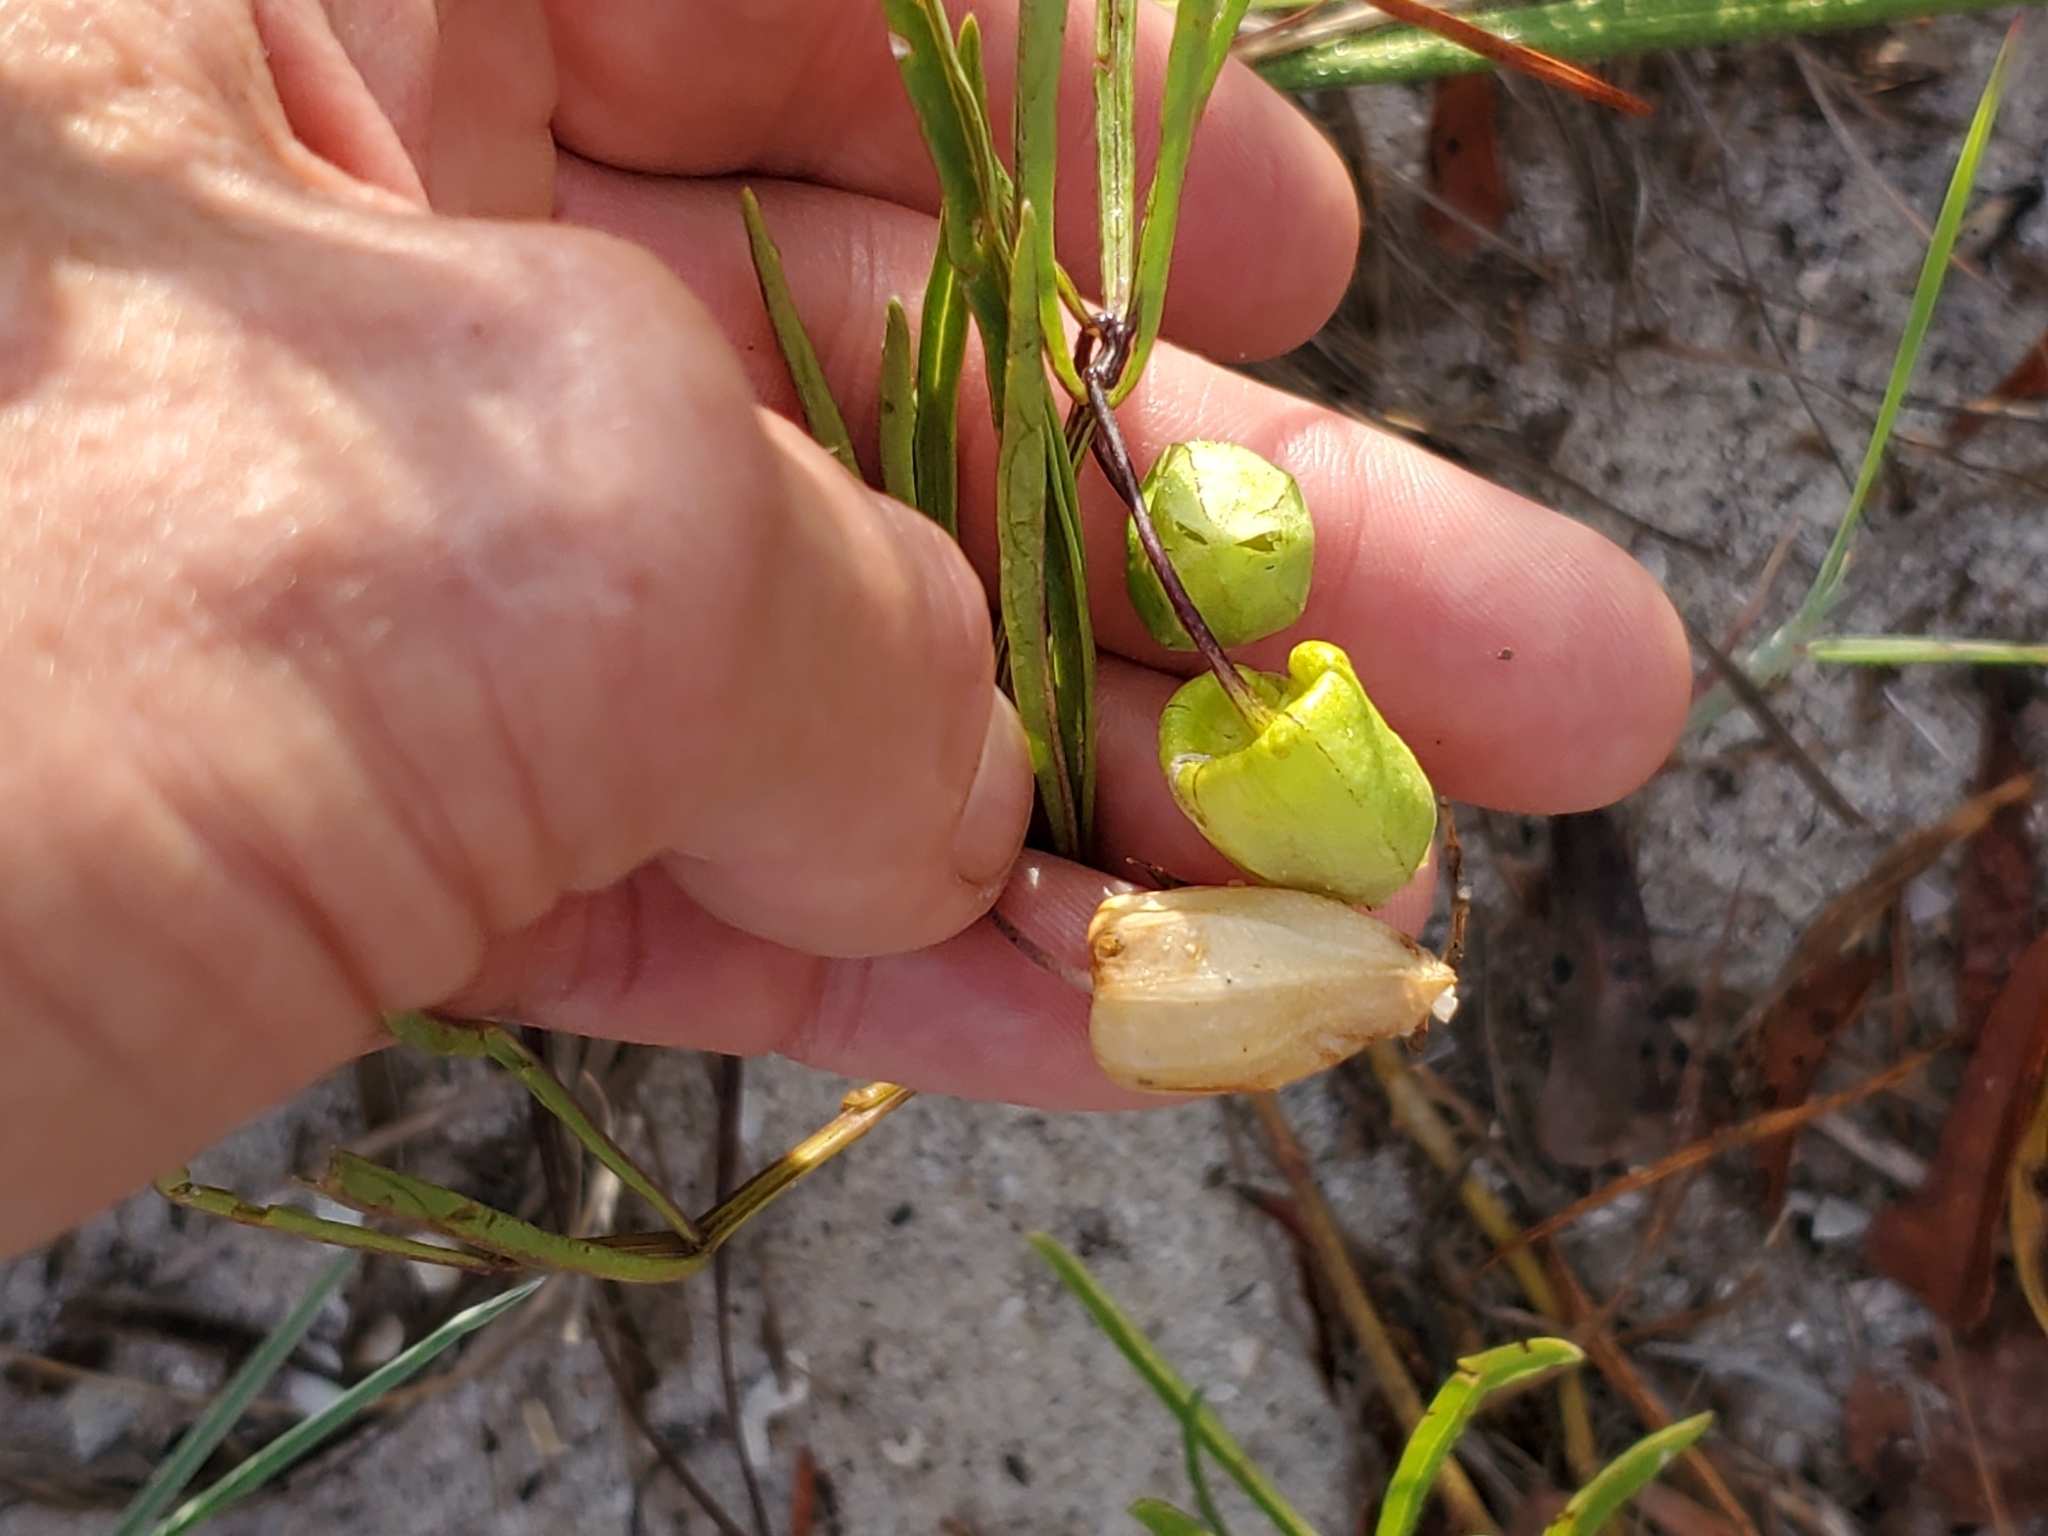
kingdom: Plantae
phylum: Tracheophyta
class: Magnoliopsida
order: Solanales
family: Solanaceae
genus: Physalis
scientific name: Physalis angustifolia
